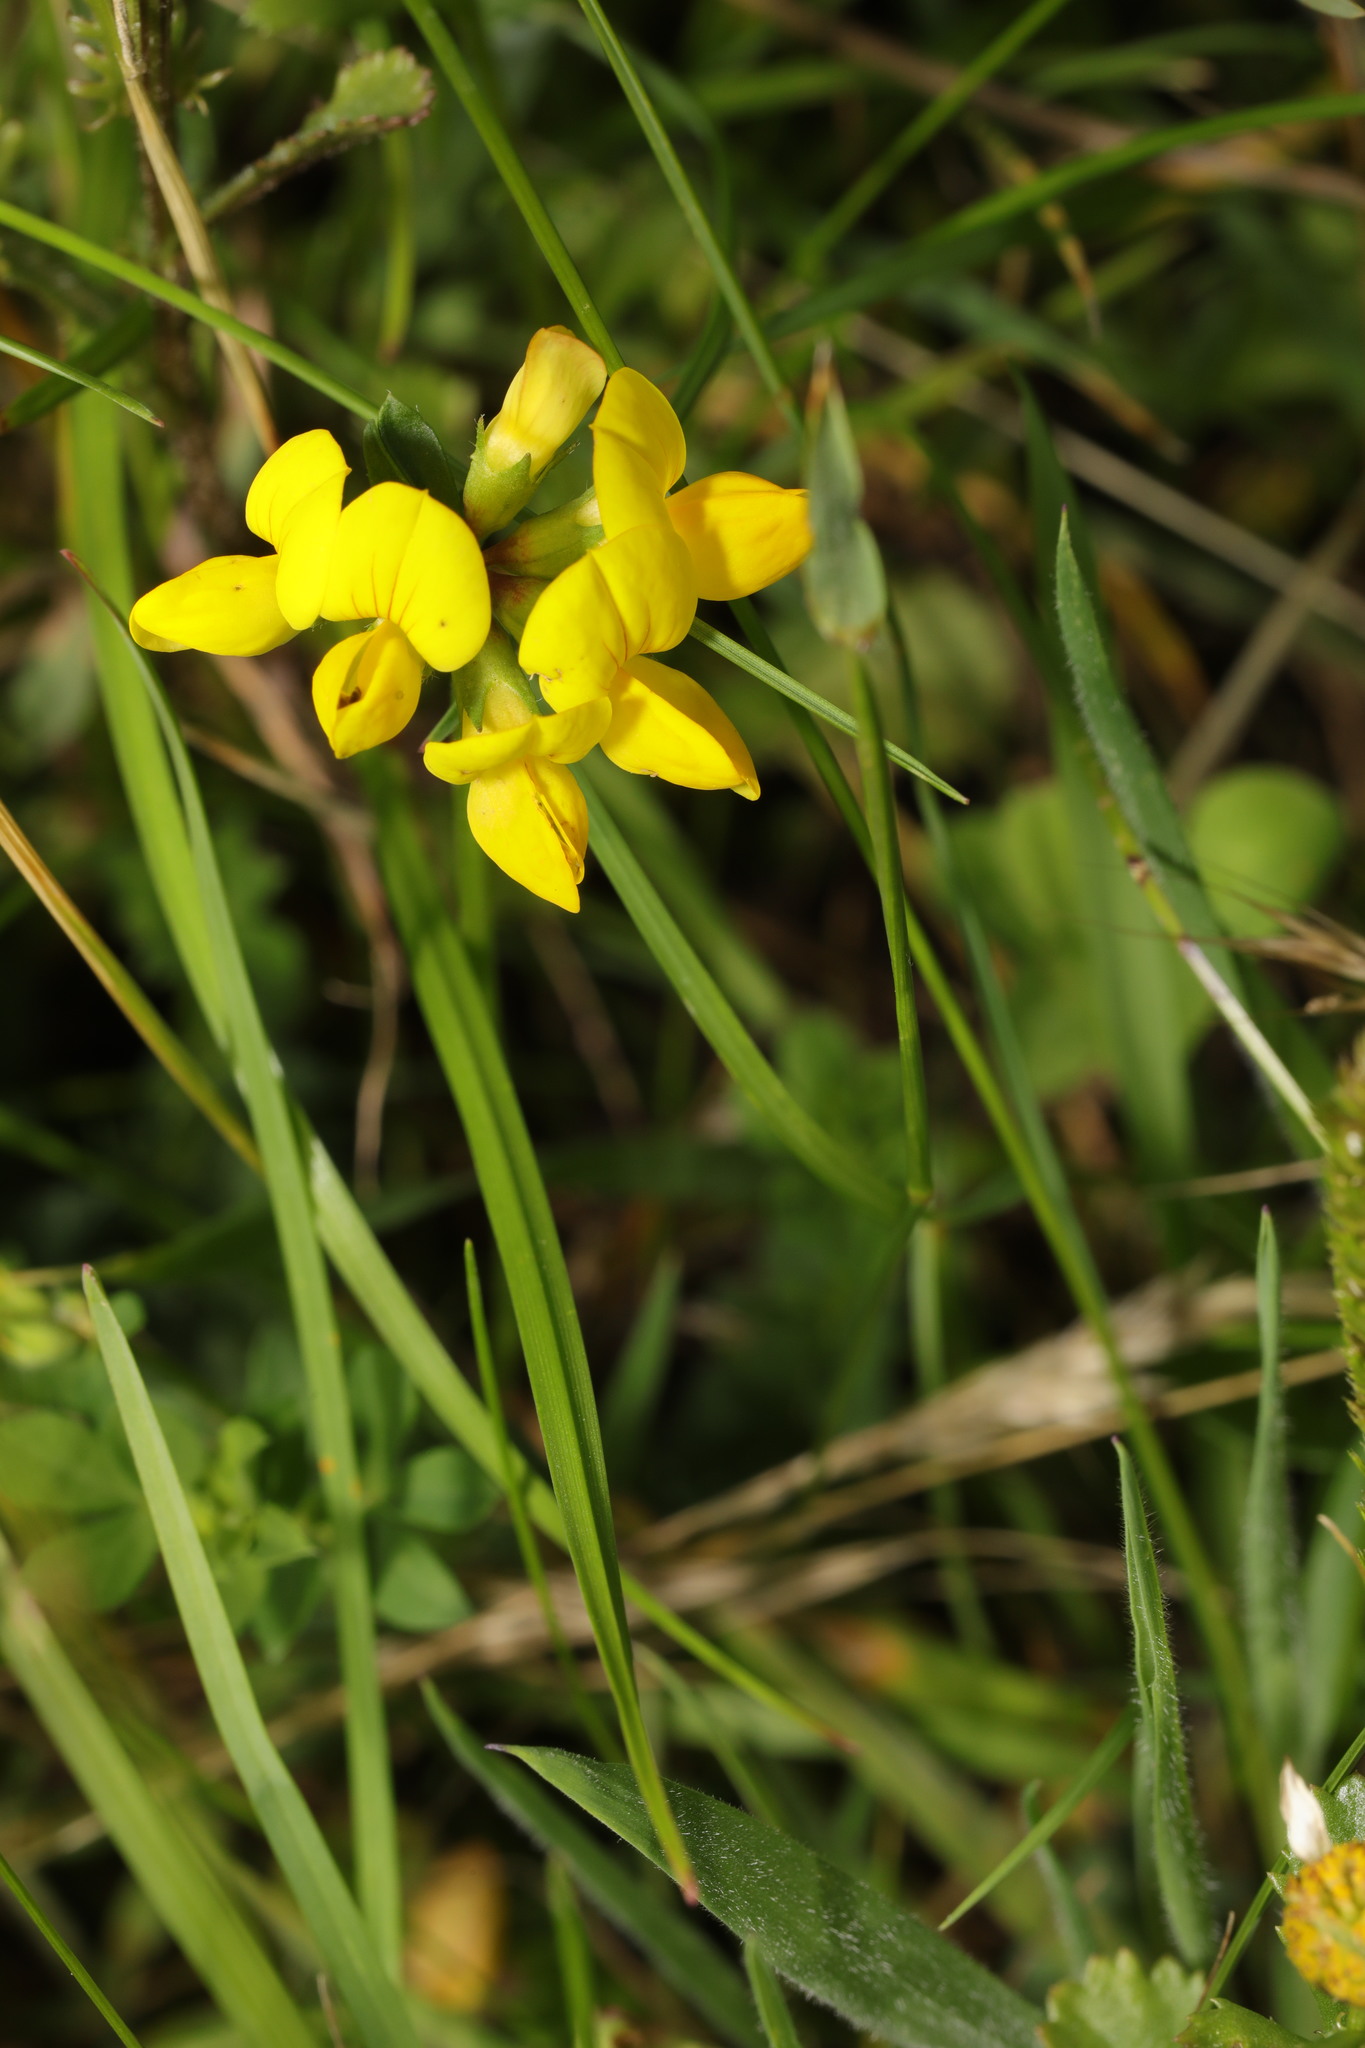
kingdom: Plantae
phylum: Tracheophyta
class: Magnoliopsida
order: Fabales
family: Fabaceae
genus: Lotus
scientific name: Lotus corniculatus
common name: Common bird's-foot-trefoil
